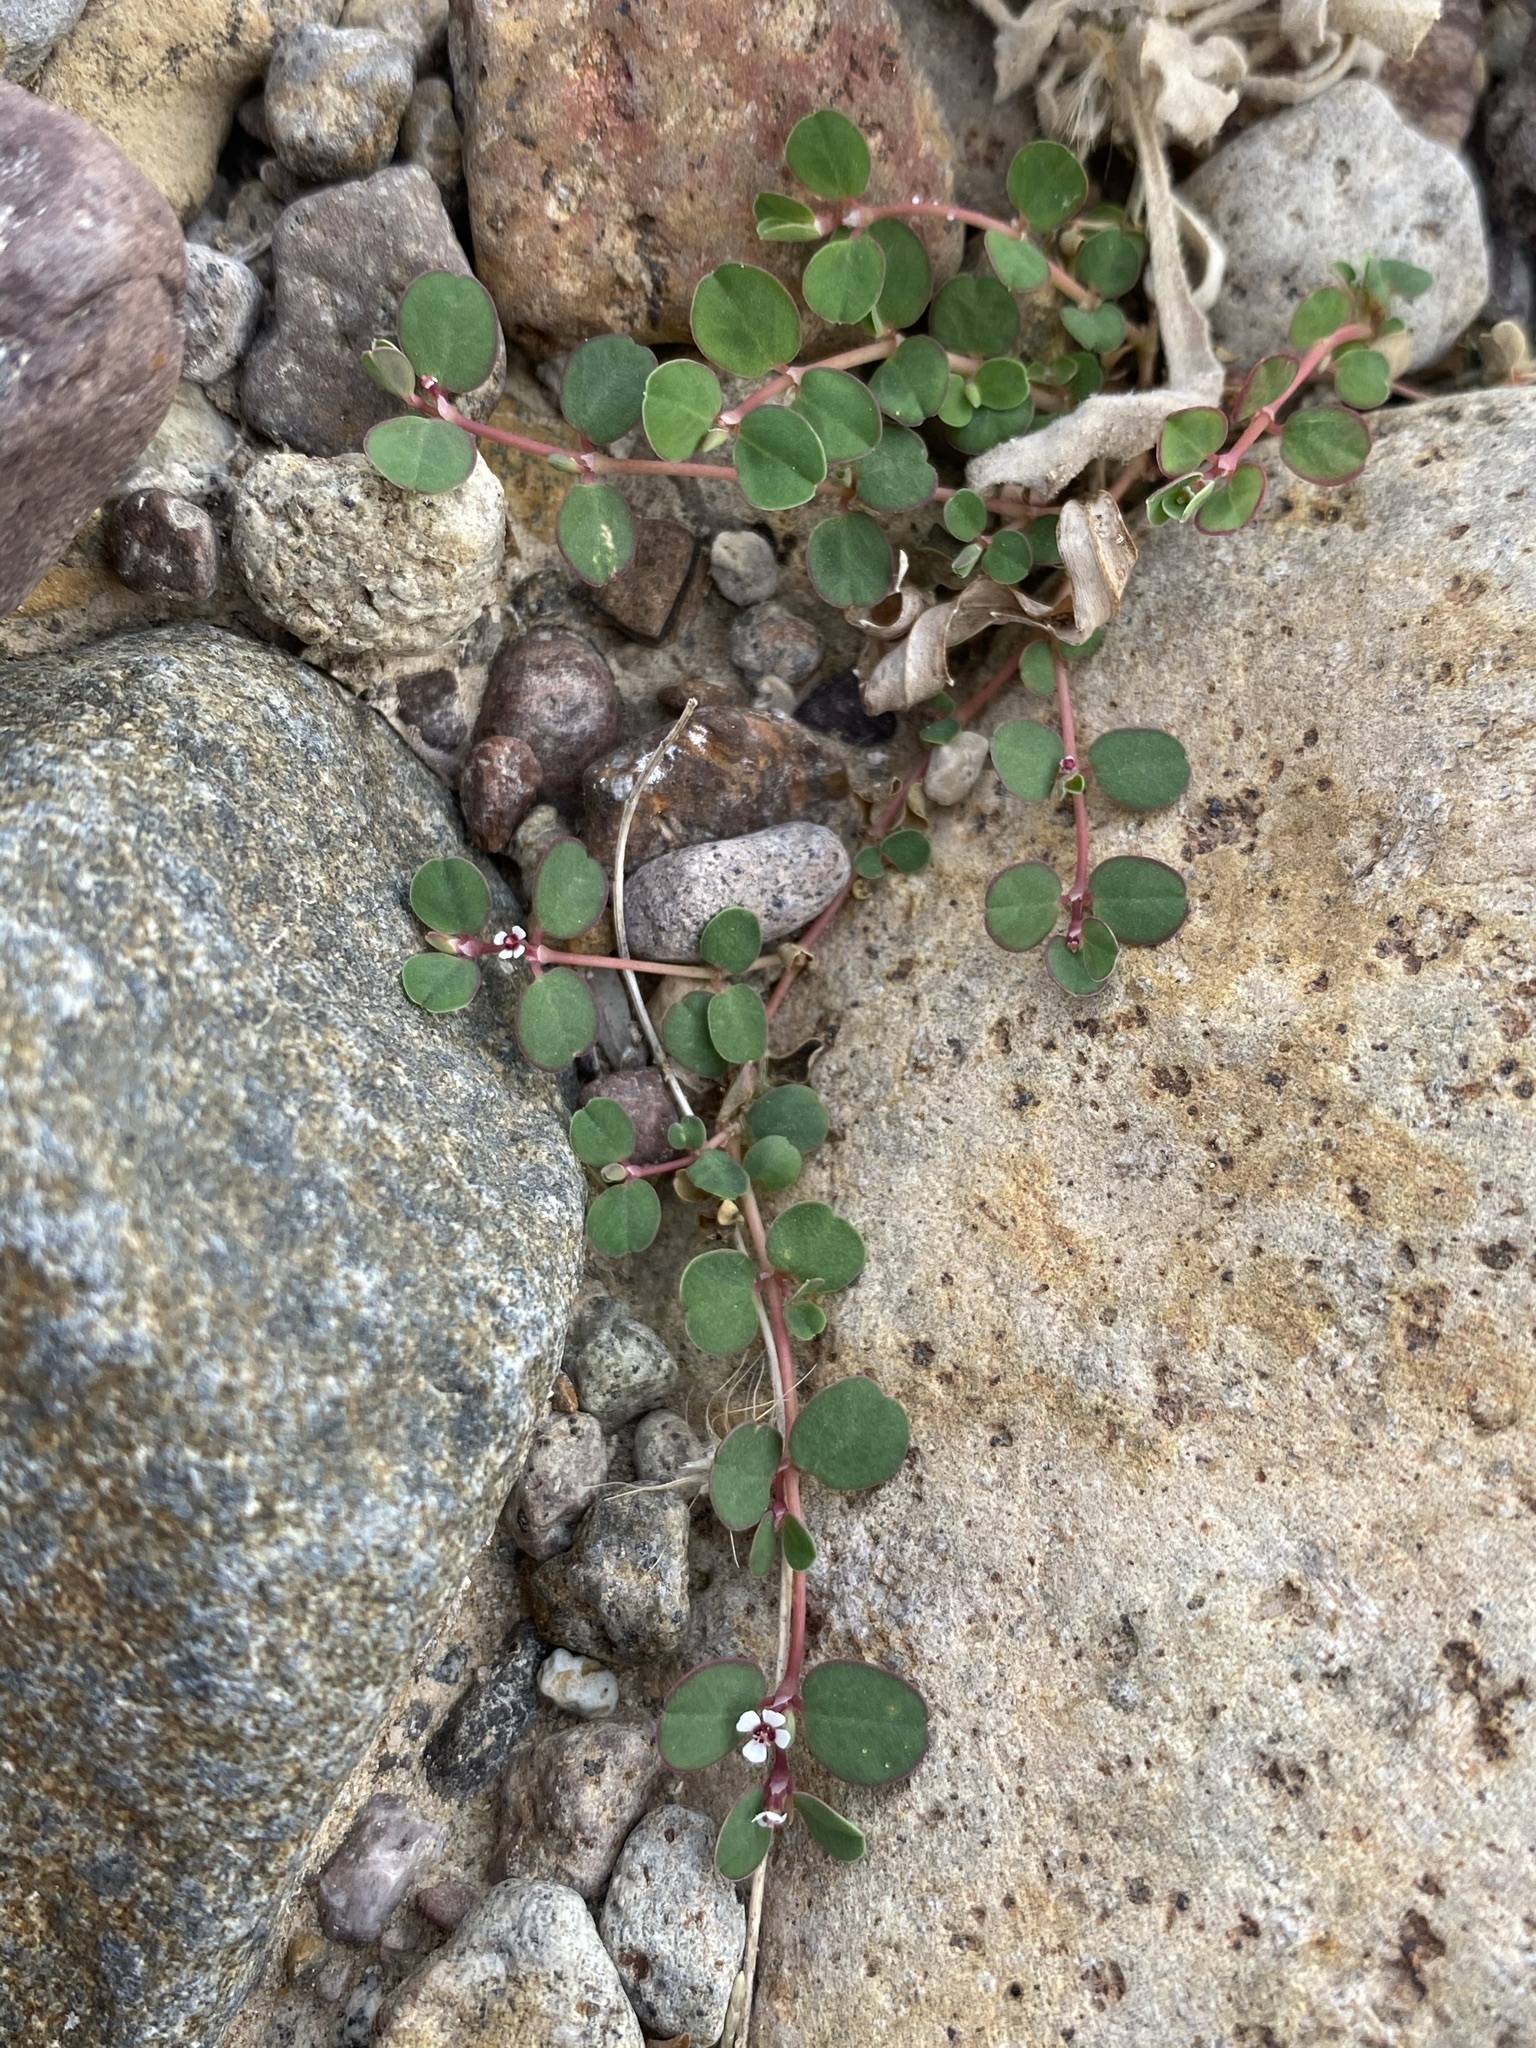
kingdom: Plantae
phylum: Tracheophyta
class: Magnoliopsida
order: Malpighiales
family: Euphorbiaceae
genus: Euphorbia
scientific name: Euphorbia albomarginata
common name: Whitemargin sandmat
